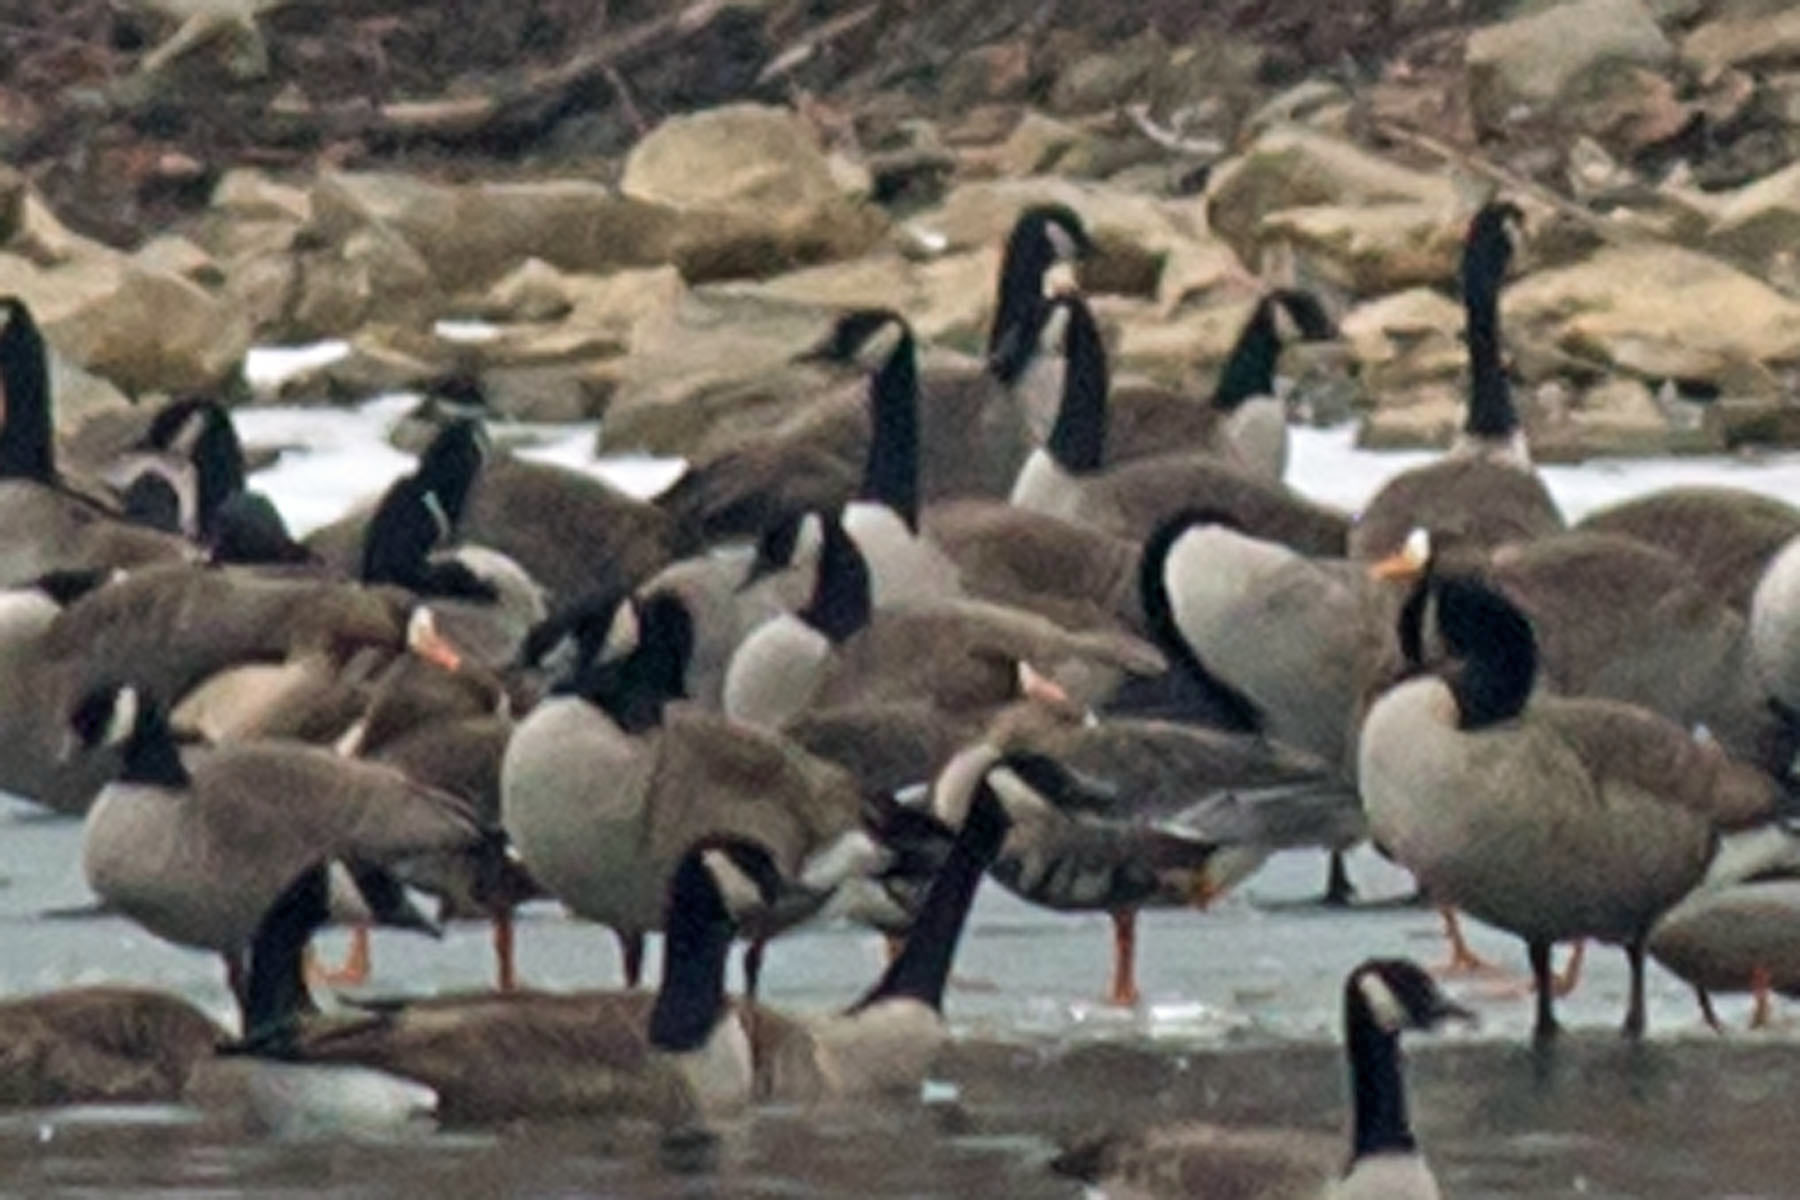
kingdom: Animalia
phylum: Chordata
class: Aves
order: Anseriformes
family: Anatidae
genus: Anser
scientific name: Anser albifrons
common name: Greater white-fronted goose
